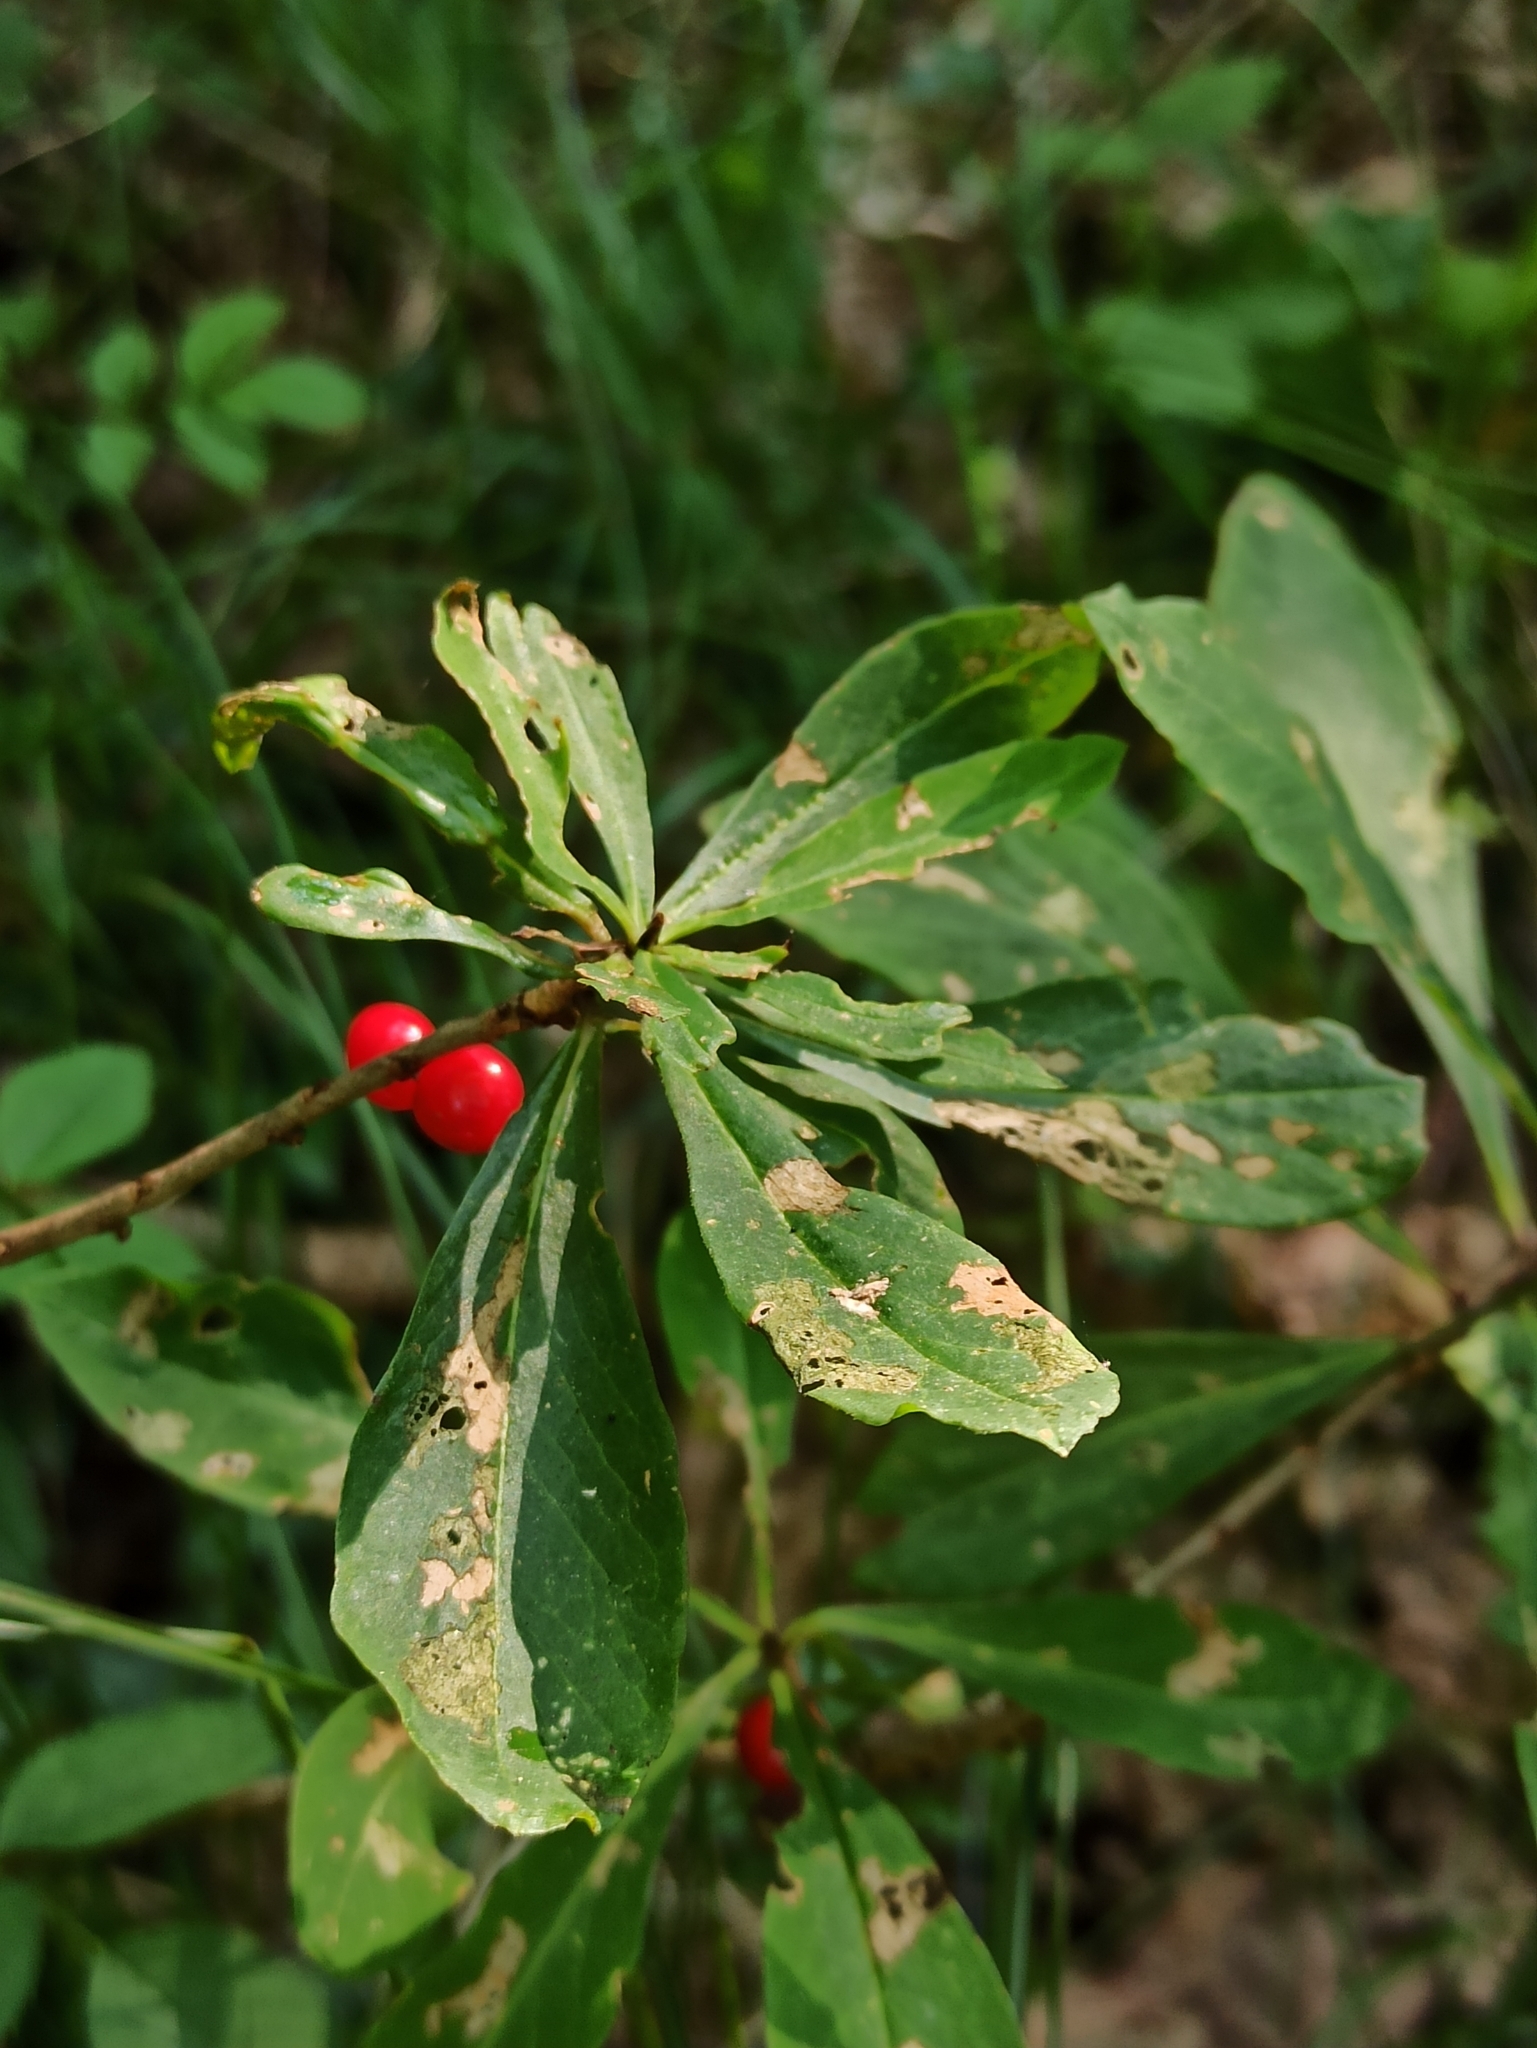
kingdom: Plantae
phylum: Tracheophyta
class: Magnoliopsida
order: Malvales
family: Thymelaeaceae
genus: Daphne
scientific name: Daphne mezereum
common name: Mezereon
